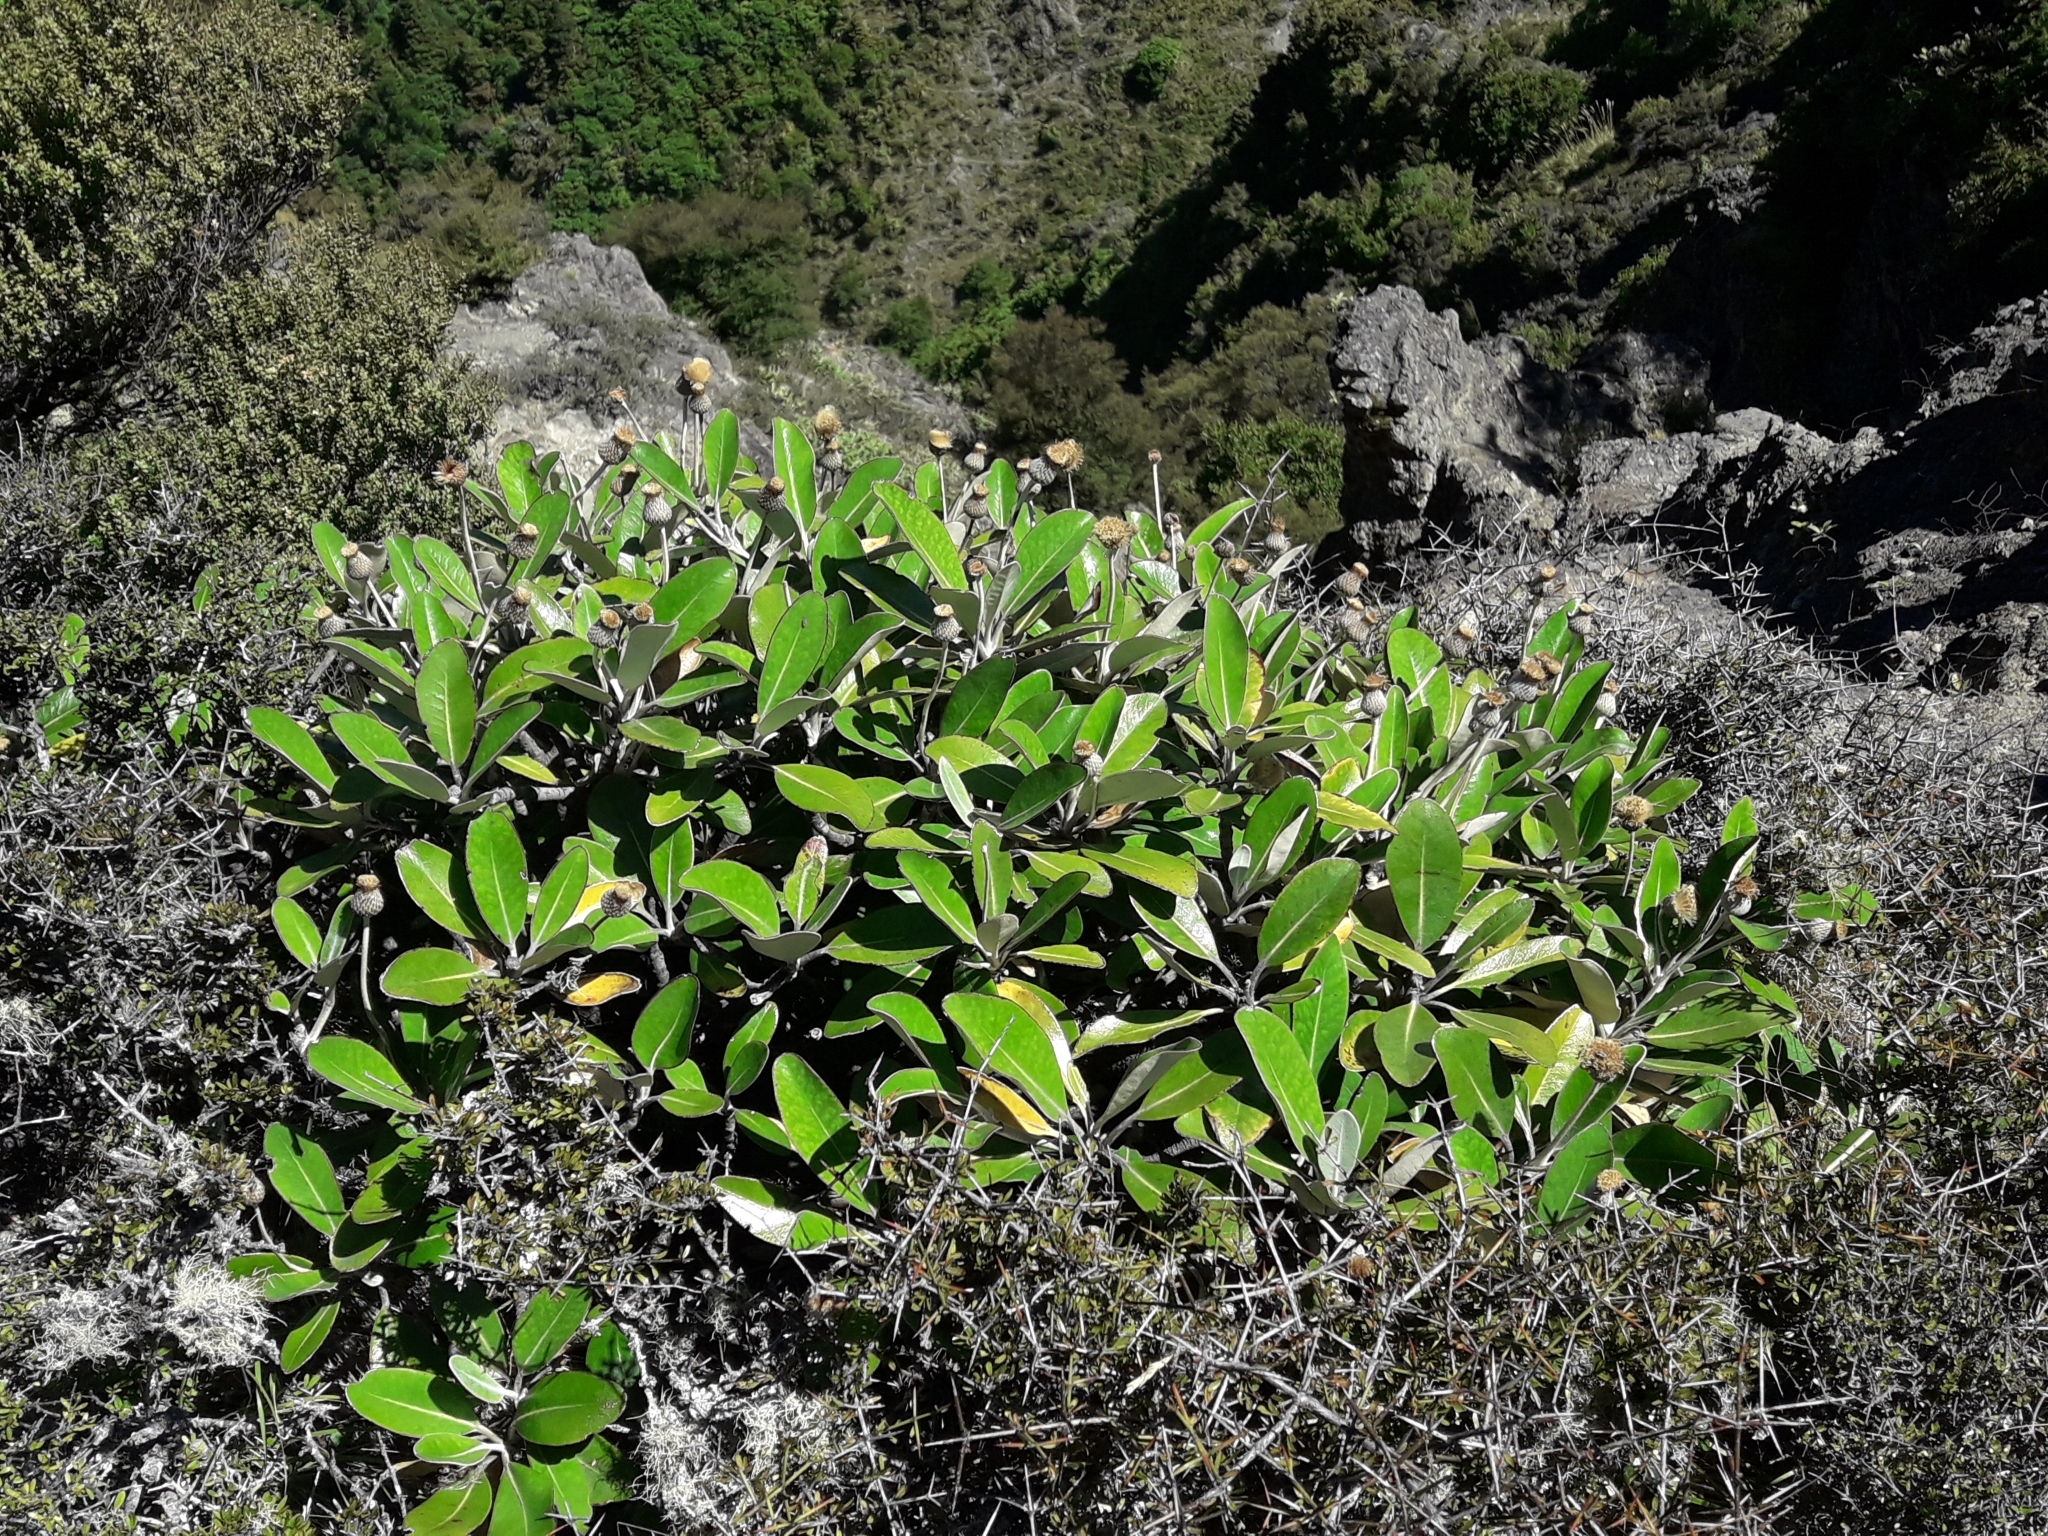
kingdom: Plantae
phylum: Tracheophyta
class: Magnoliopsida
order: Asterales
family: Asteraceae
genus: Pachystegia
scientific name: Pachystegia insignis
